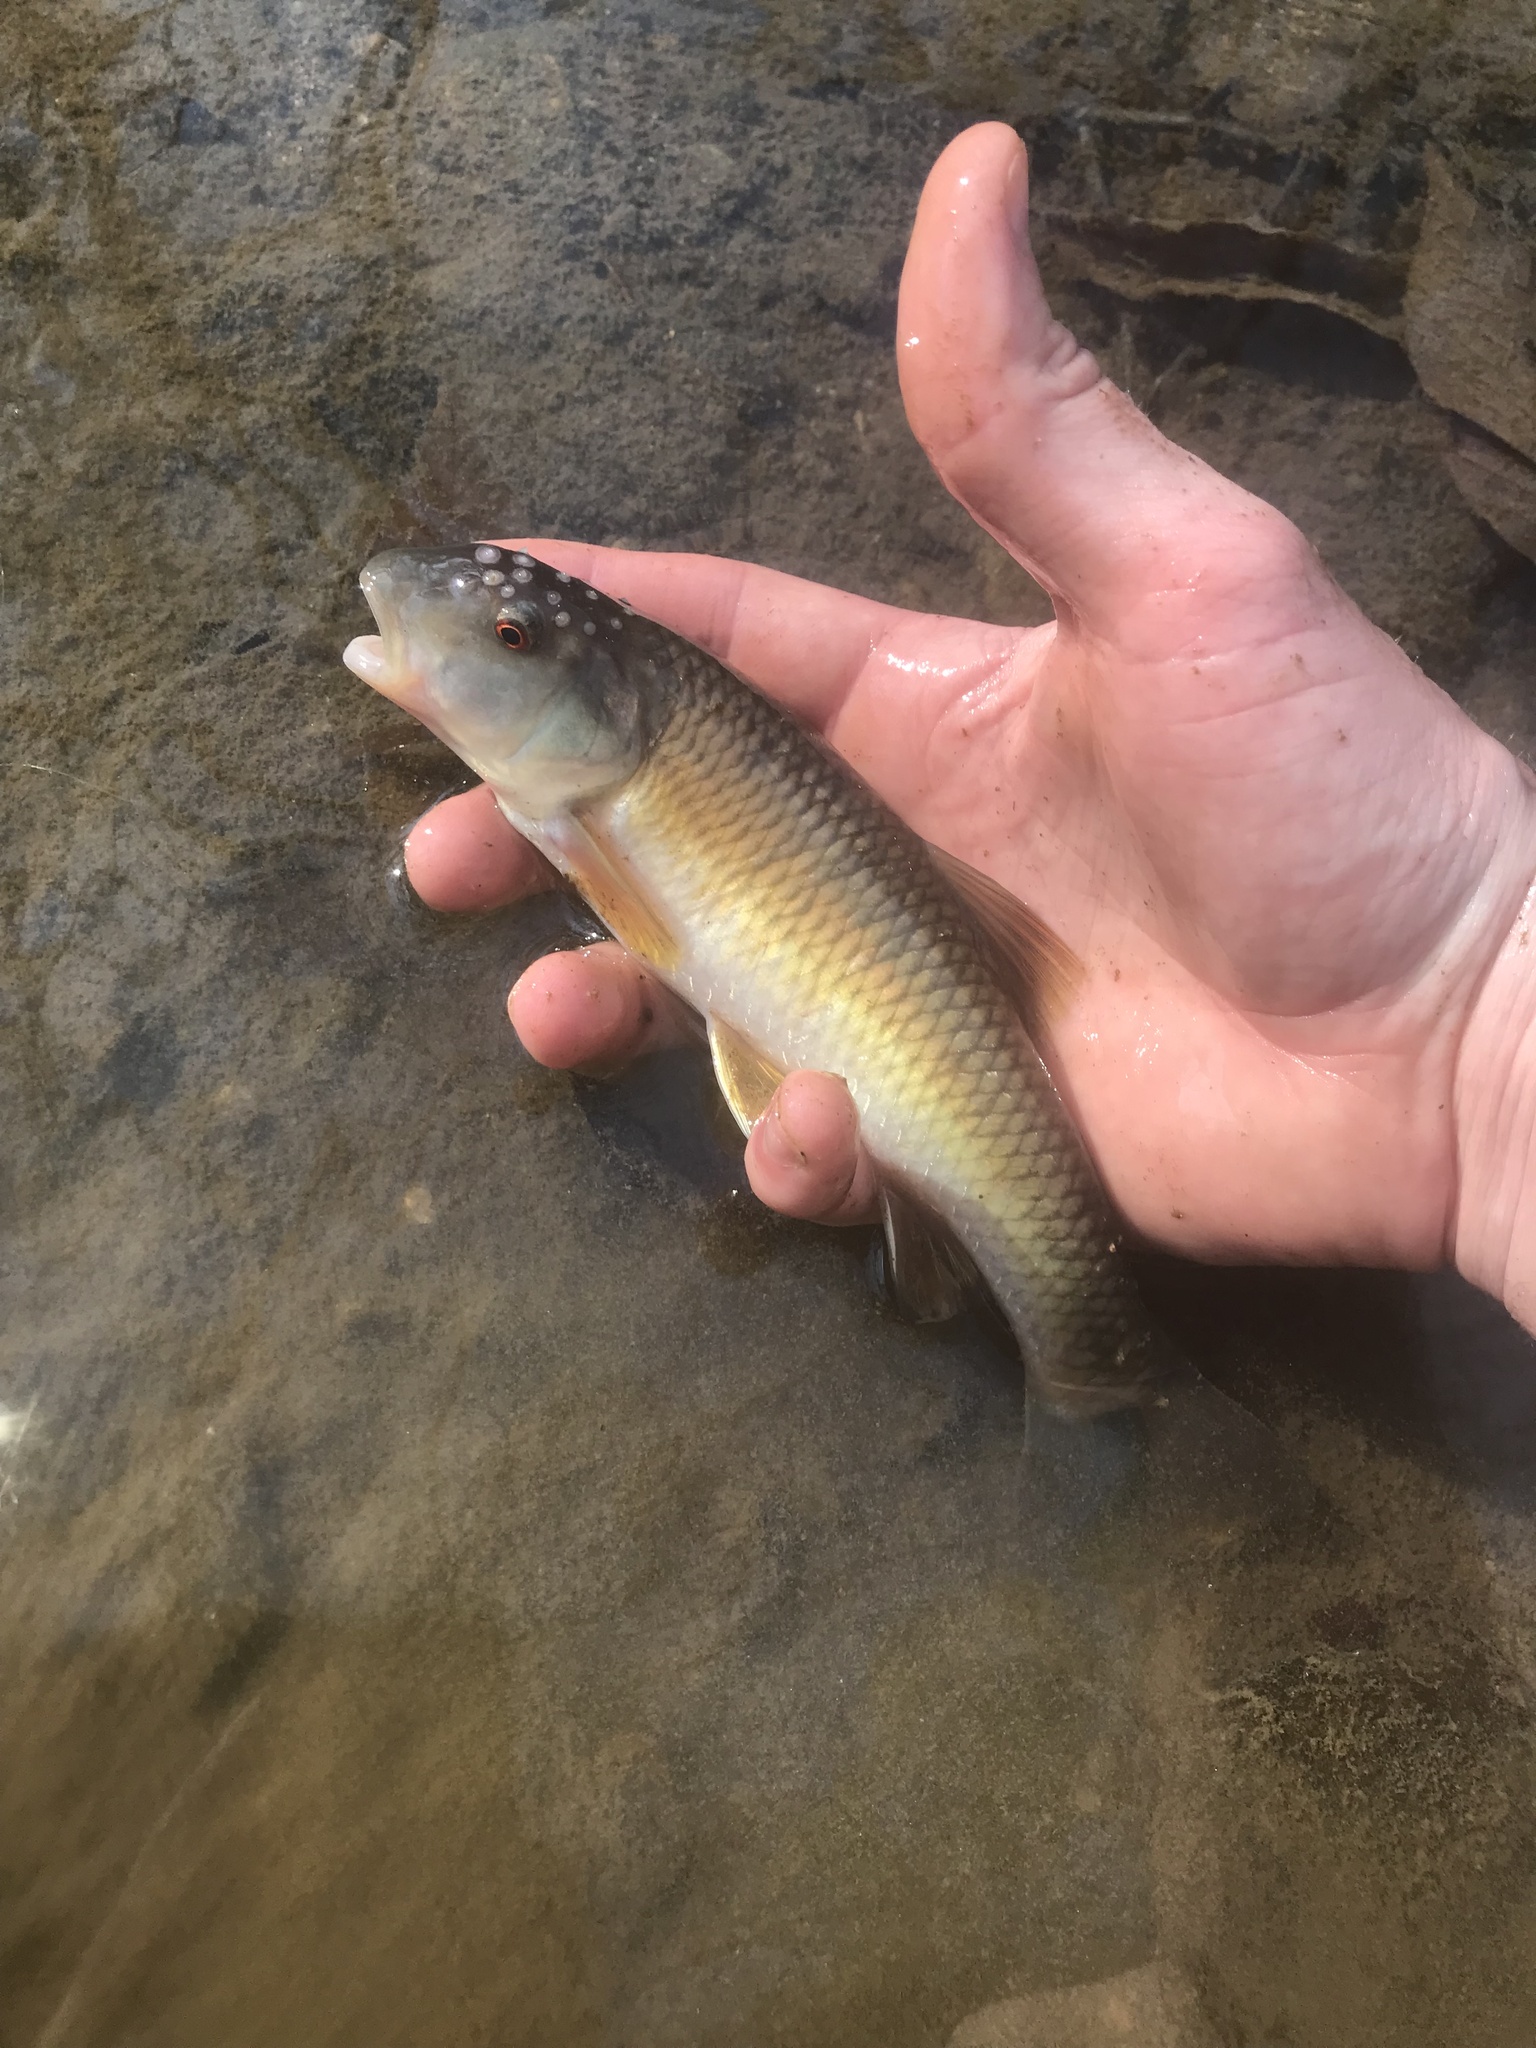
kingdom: Animalia
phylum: Chordata
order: Cypriniformes
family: Cyprinidae
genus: Nocomis
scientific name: Nocomis leptocephalus
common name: Bluehead chub
